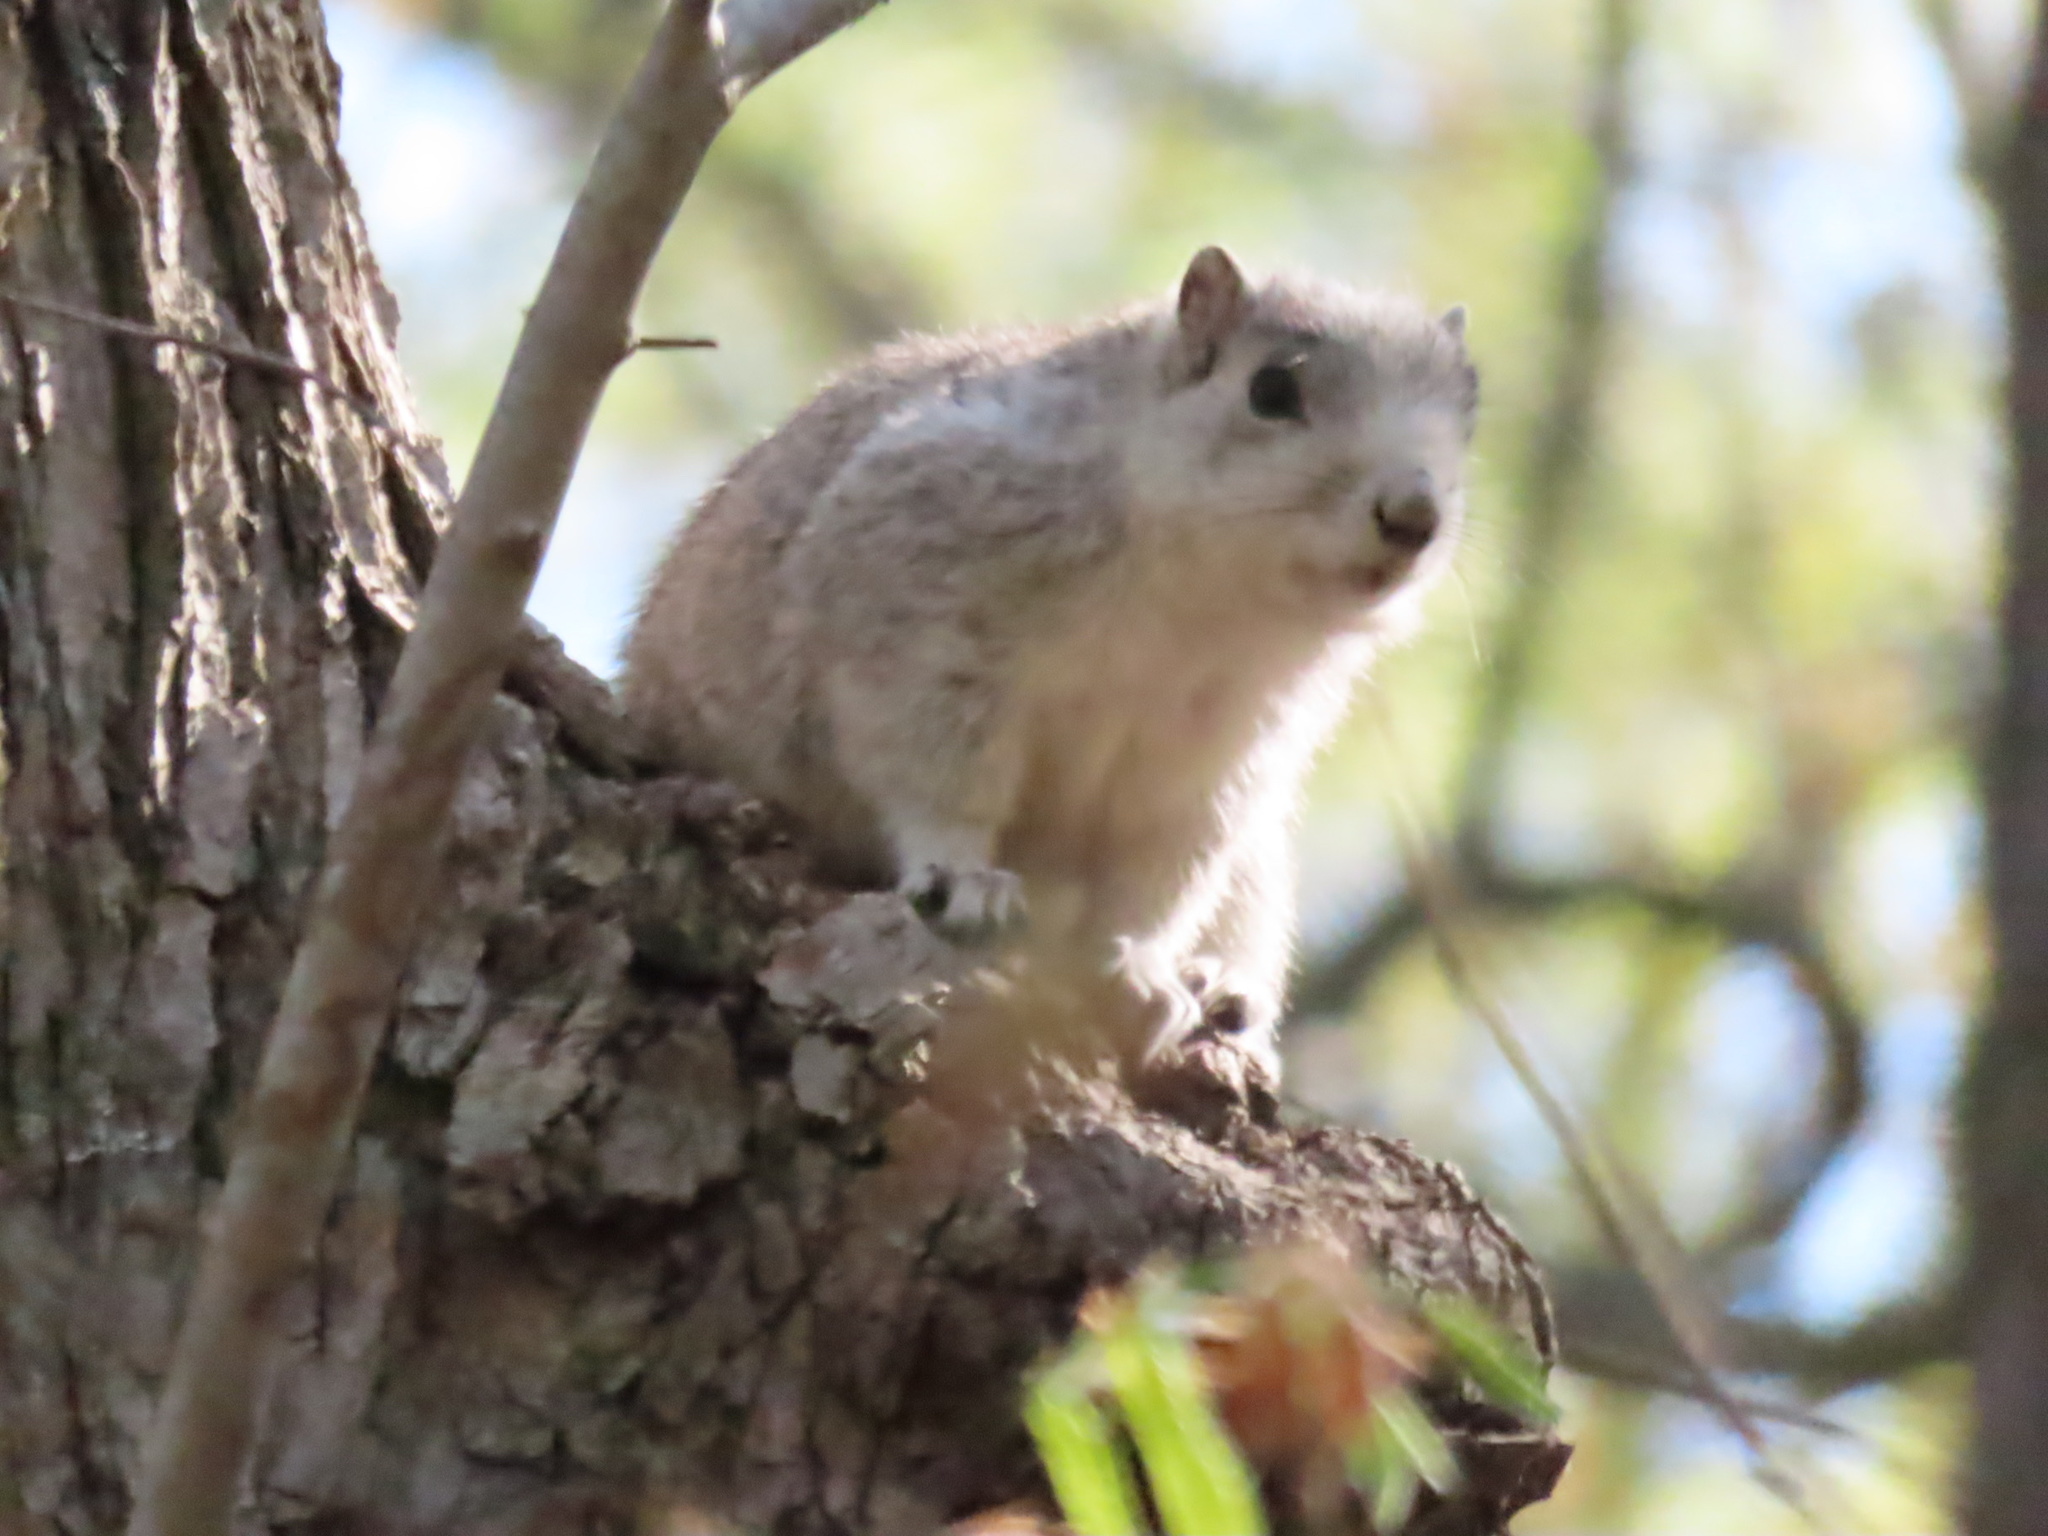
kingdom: Animalia
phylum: Chordata
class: Mammalia
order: Rodentia
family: Sciuridae
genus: Sciurus
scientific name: Sciurus niger
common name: Fox squirrel
